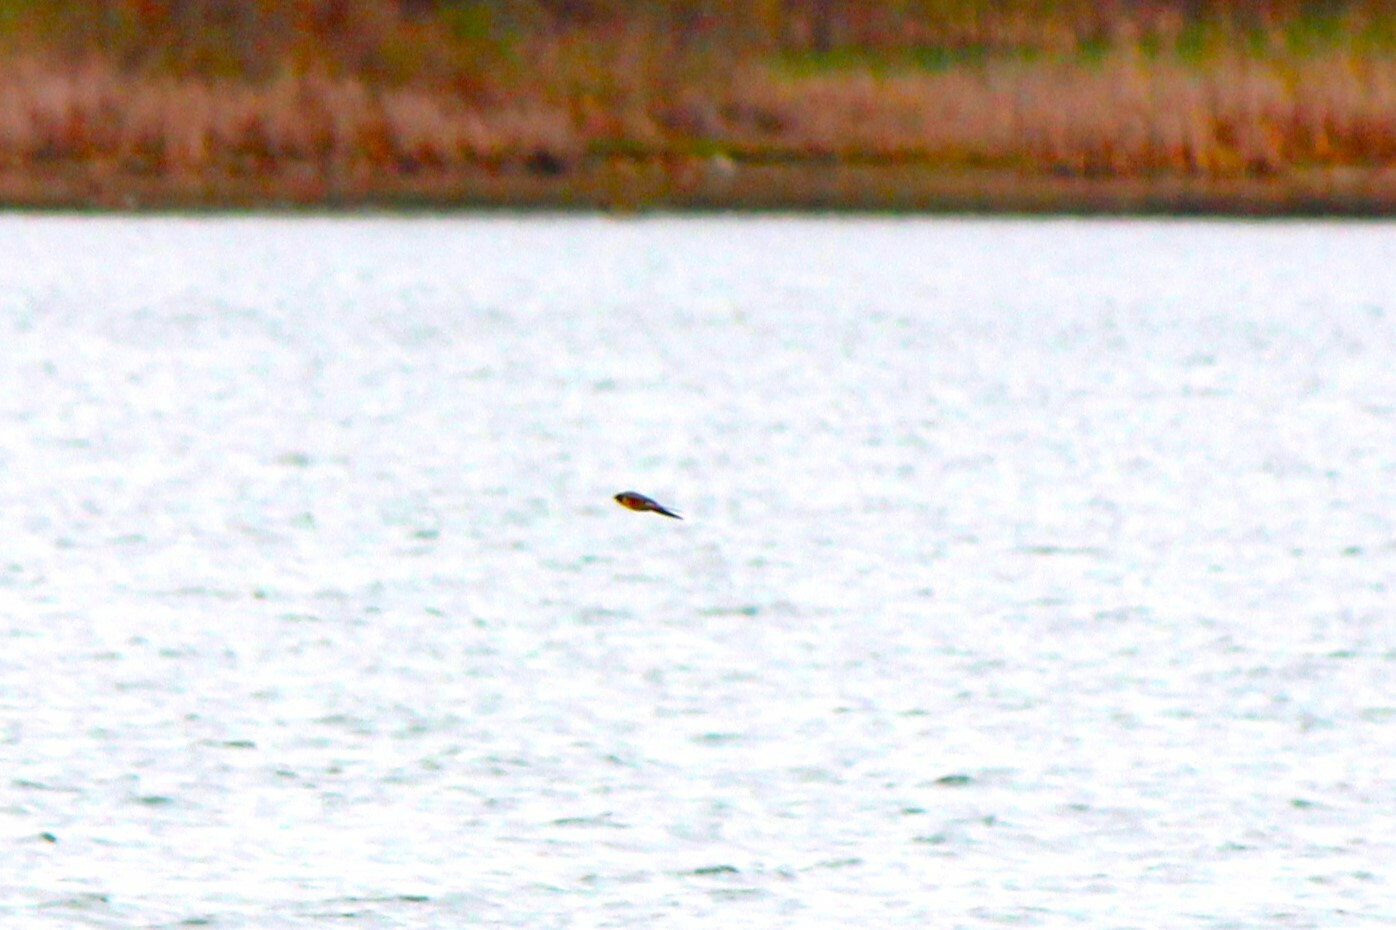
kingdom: Animalia
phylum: Chordata
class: Aves
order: Passeriformes
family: Hirundinidae
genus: Hirundo
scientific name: Hirundo rustica
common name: Barn swallow
